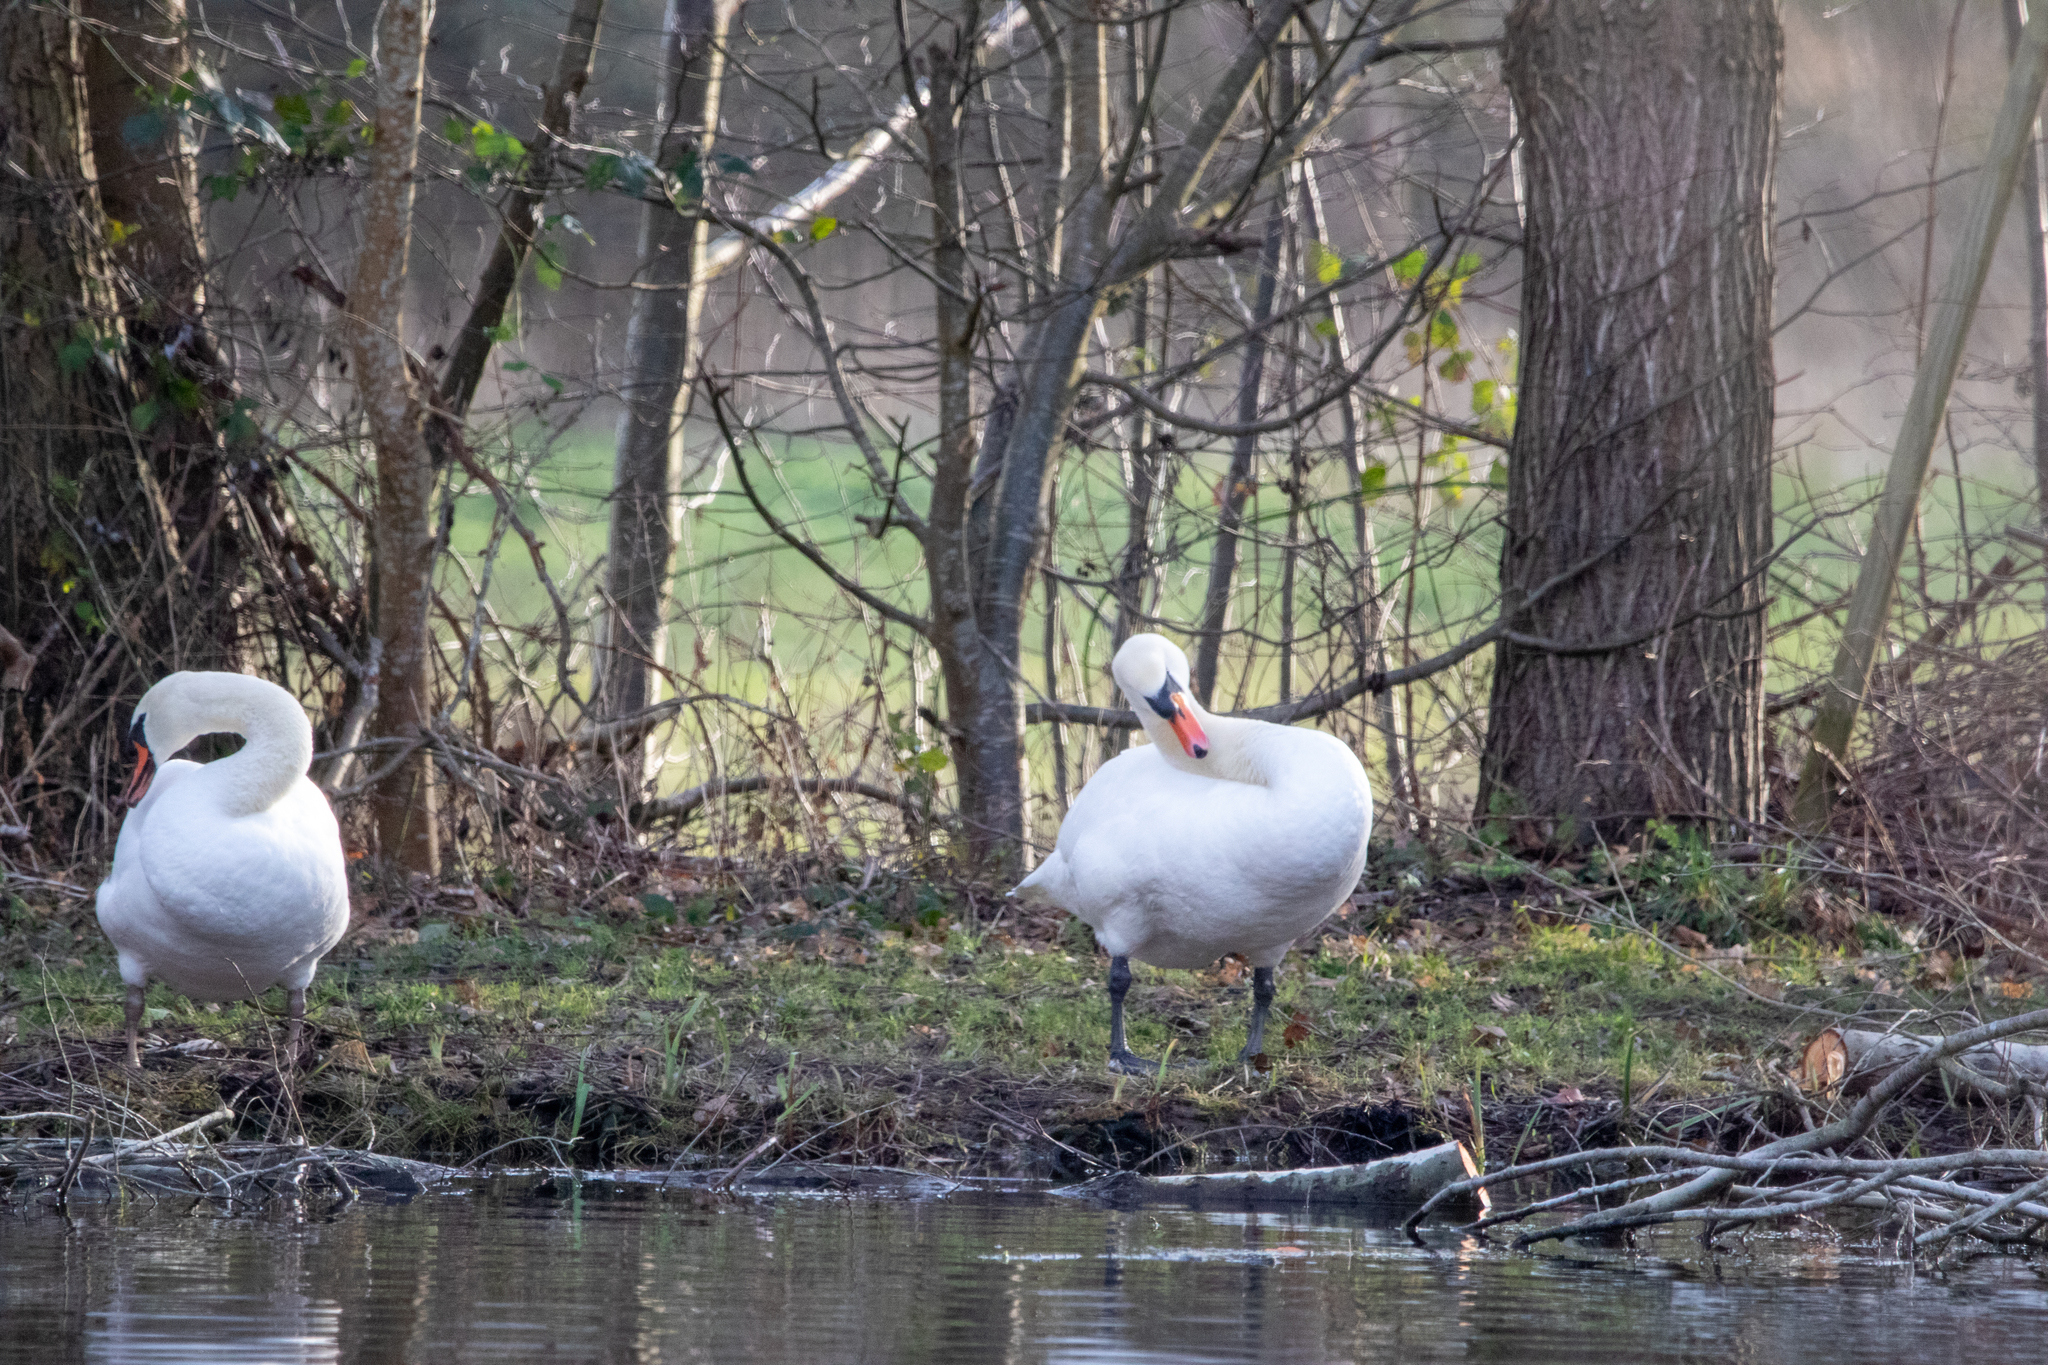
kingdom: Animalia
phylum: Chordata
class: Aves
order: Anseriformes
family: Anatidae
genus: Cygnus
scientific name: Cygnus olor
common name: Mute swan
